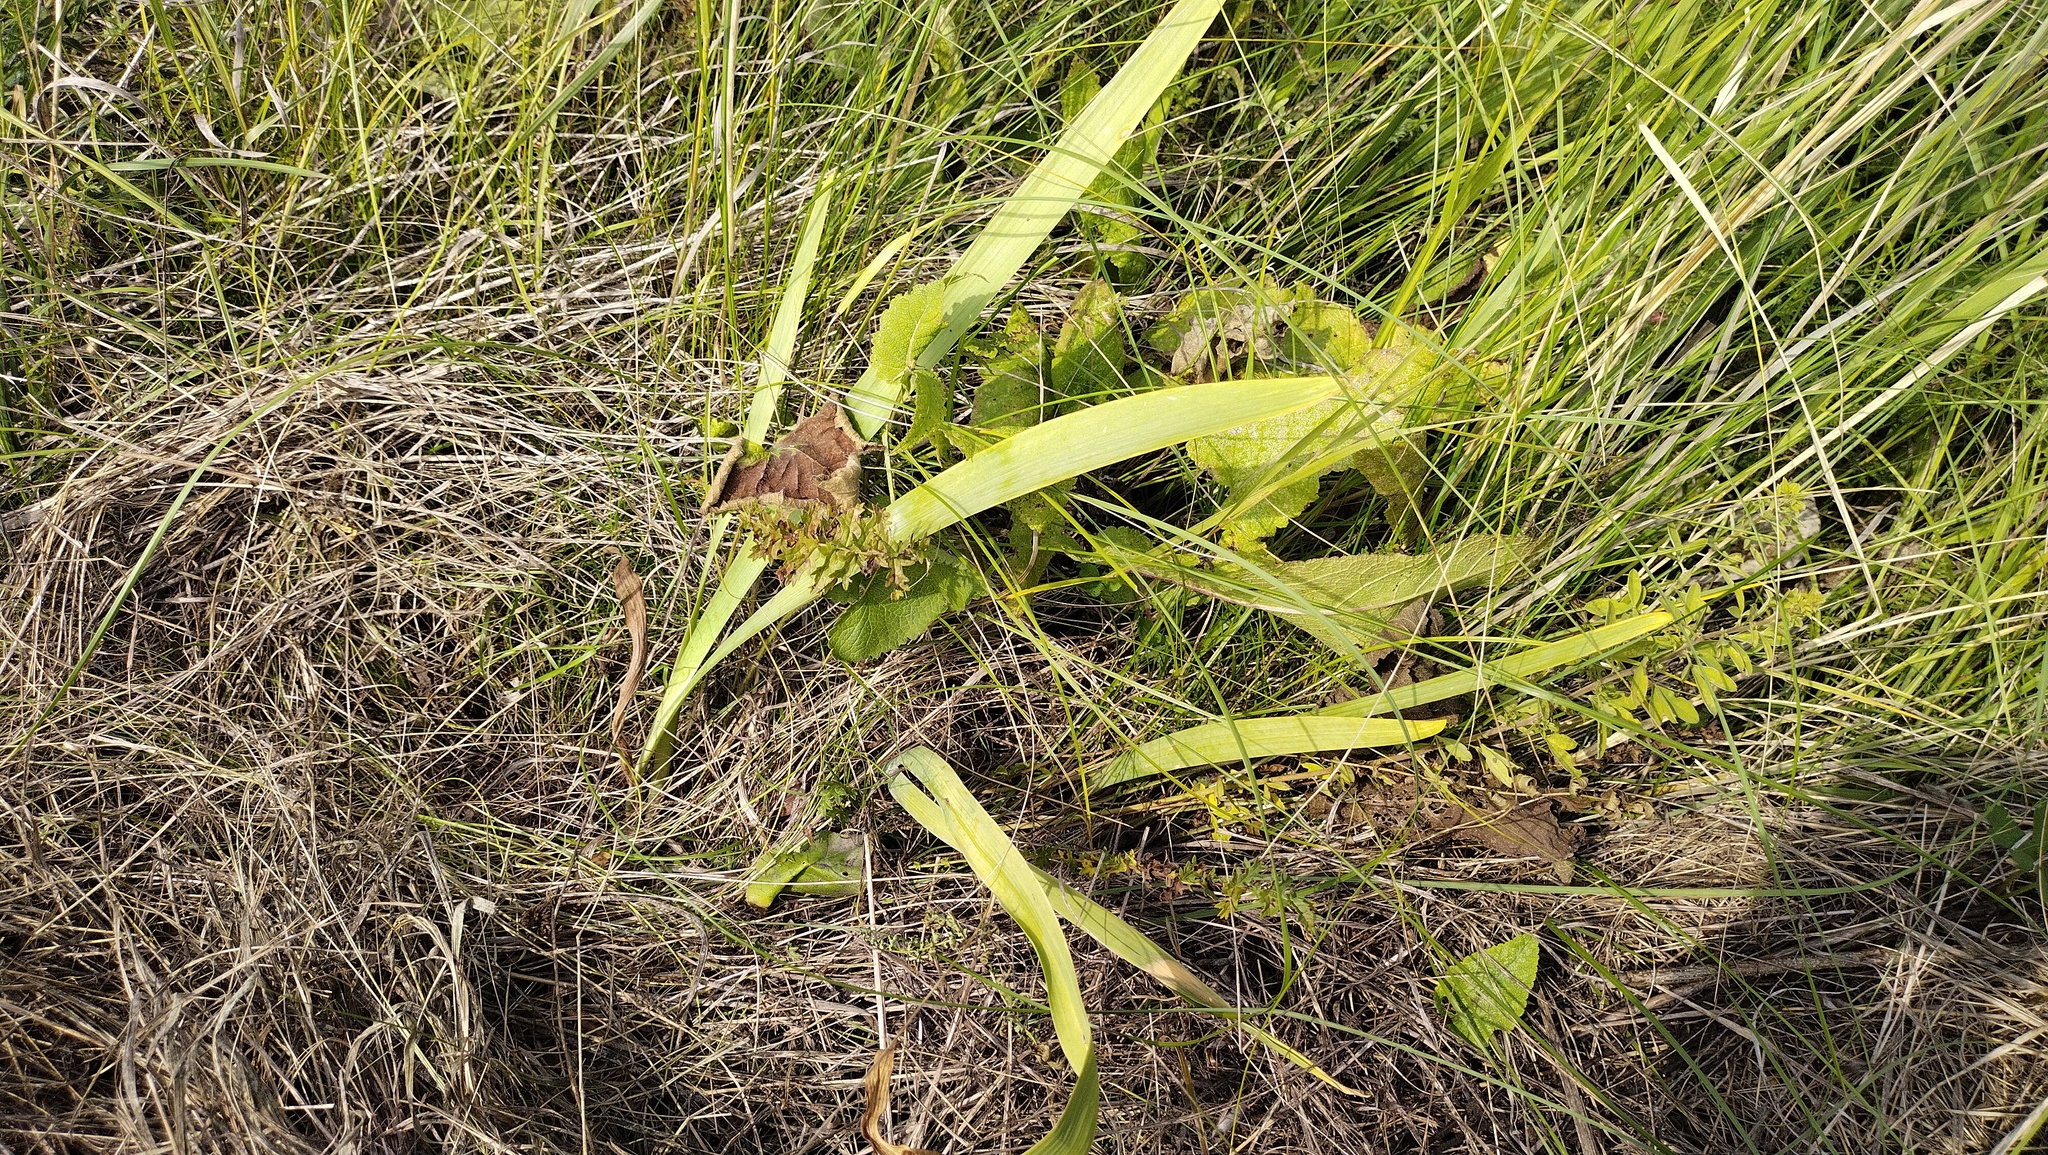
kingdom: Plantae
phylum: Tracheophyta
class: Liliopsida
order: Asparagales
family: Iridaceae
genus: Iris
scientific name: Iris aphylla
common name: Stool iris
